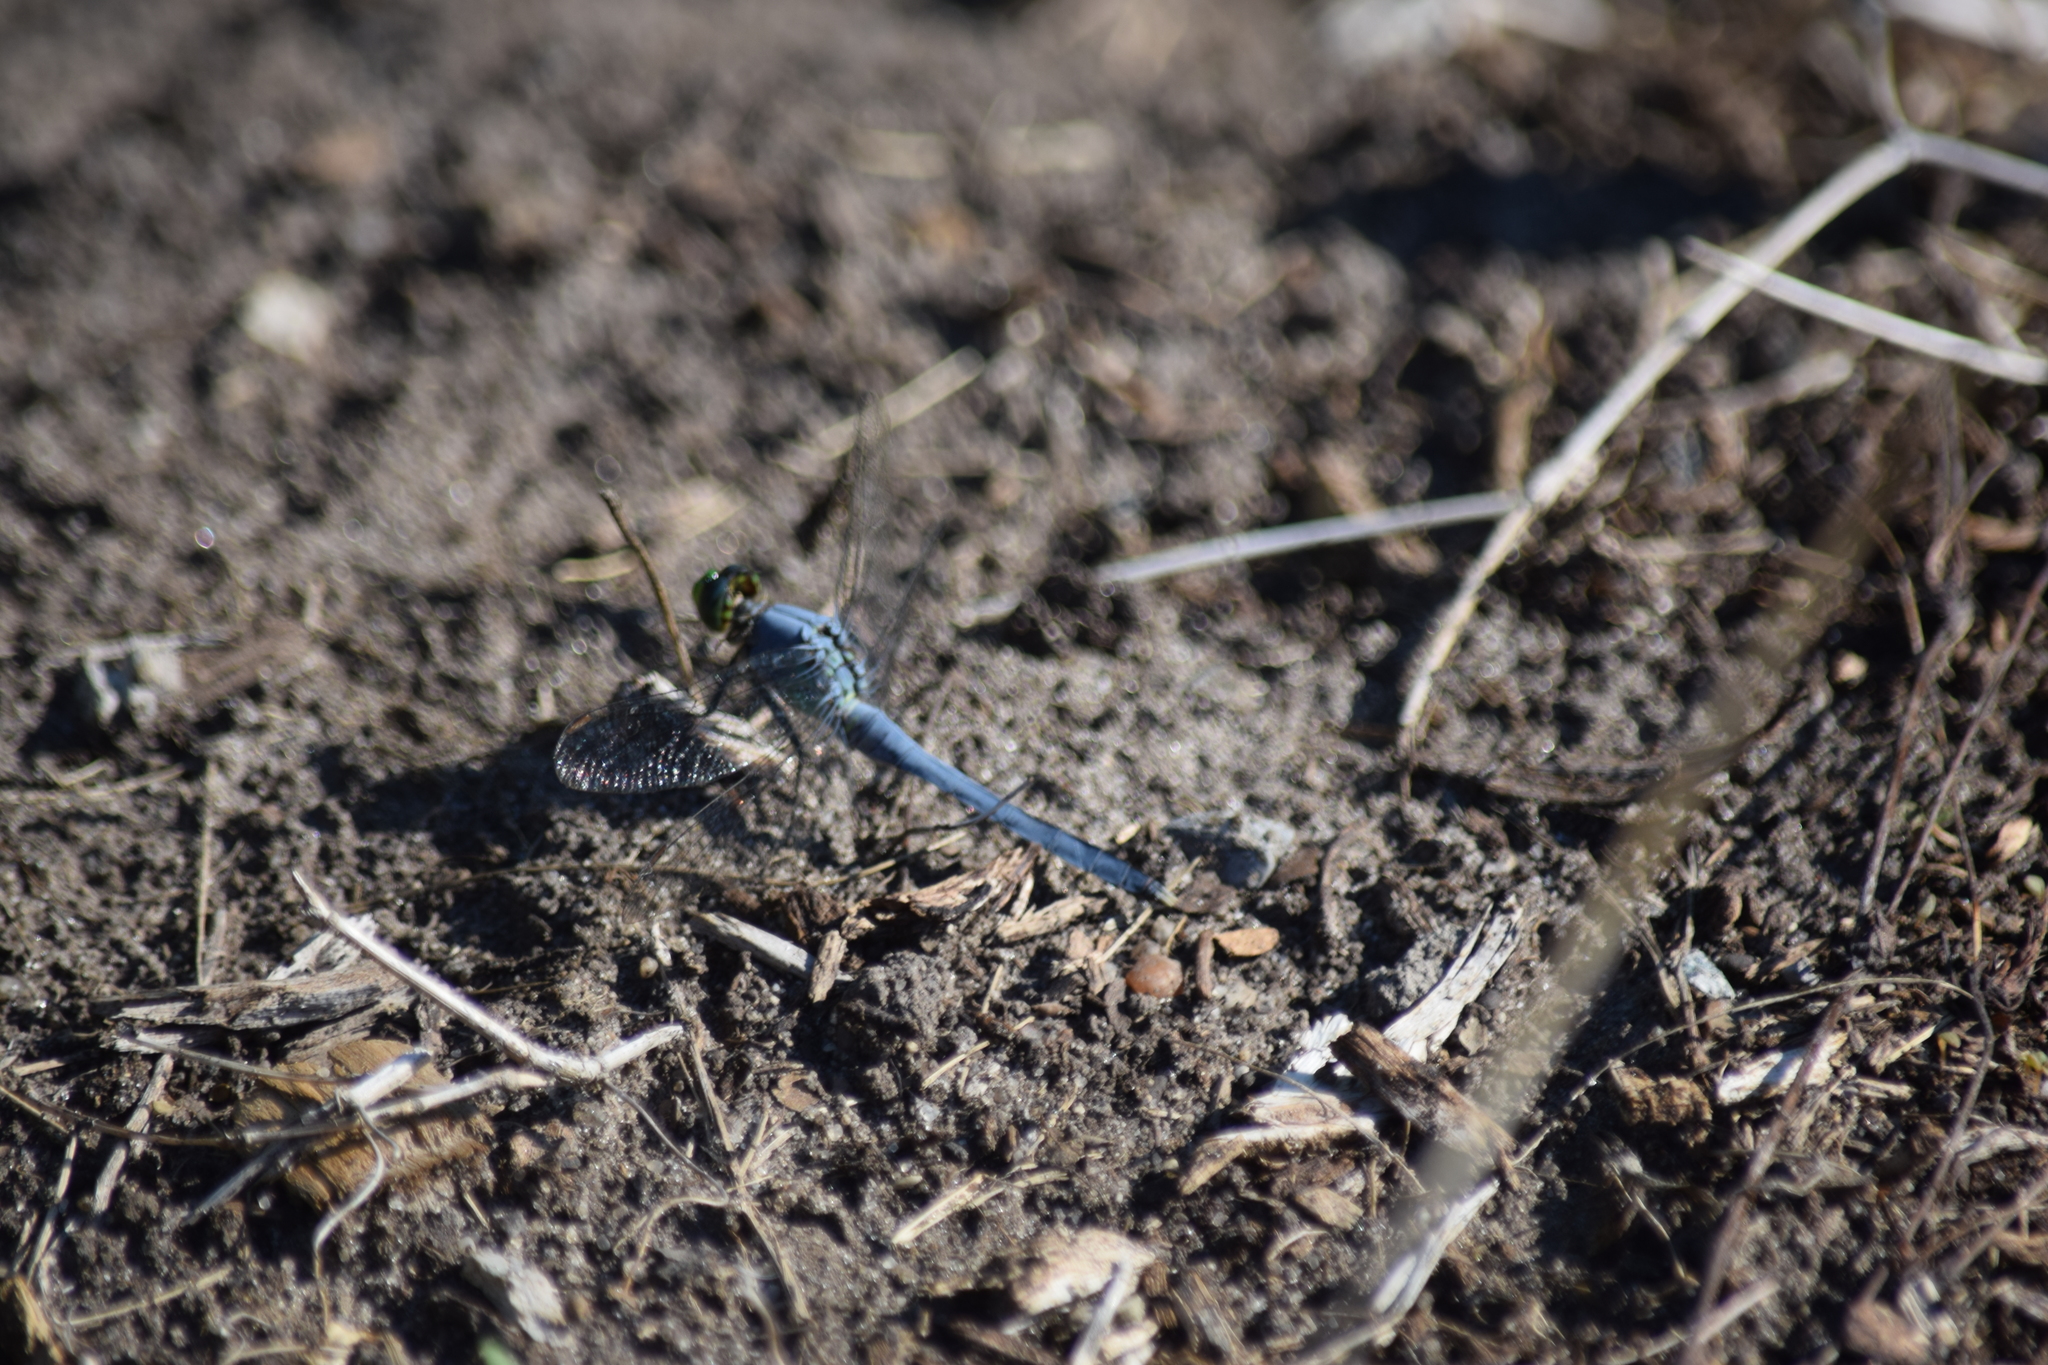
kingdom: Animalia
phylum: Arthropoda
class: Insecta
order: Odonata
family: Libellulidae
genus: Erythemis
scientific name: Erythemis simplicicollis
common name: Eastern pondhawk
